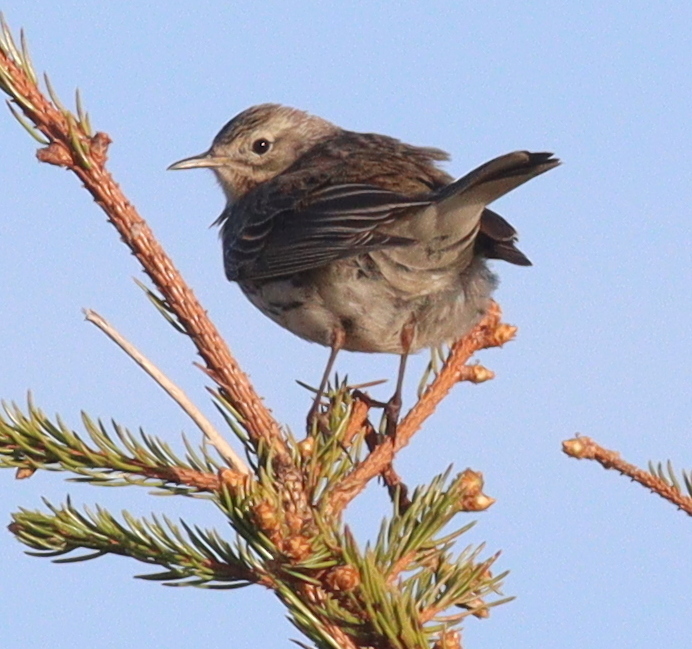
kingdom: Animalia
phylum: Chordata
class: Aves
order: Passeriformes
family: Motacillidae
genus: Anthus
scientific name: Anthus spinoletta
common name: Water pipit
